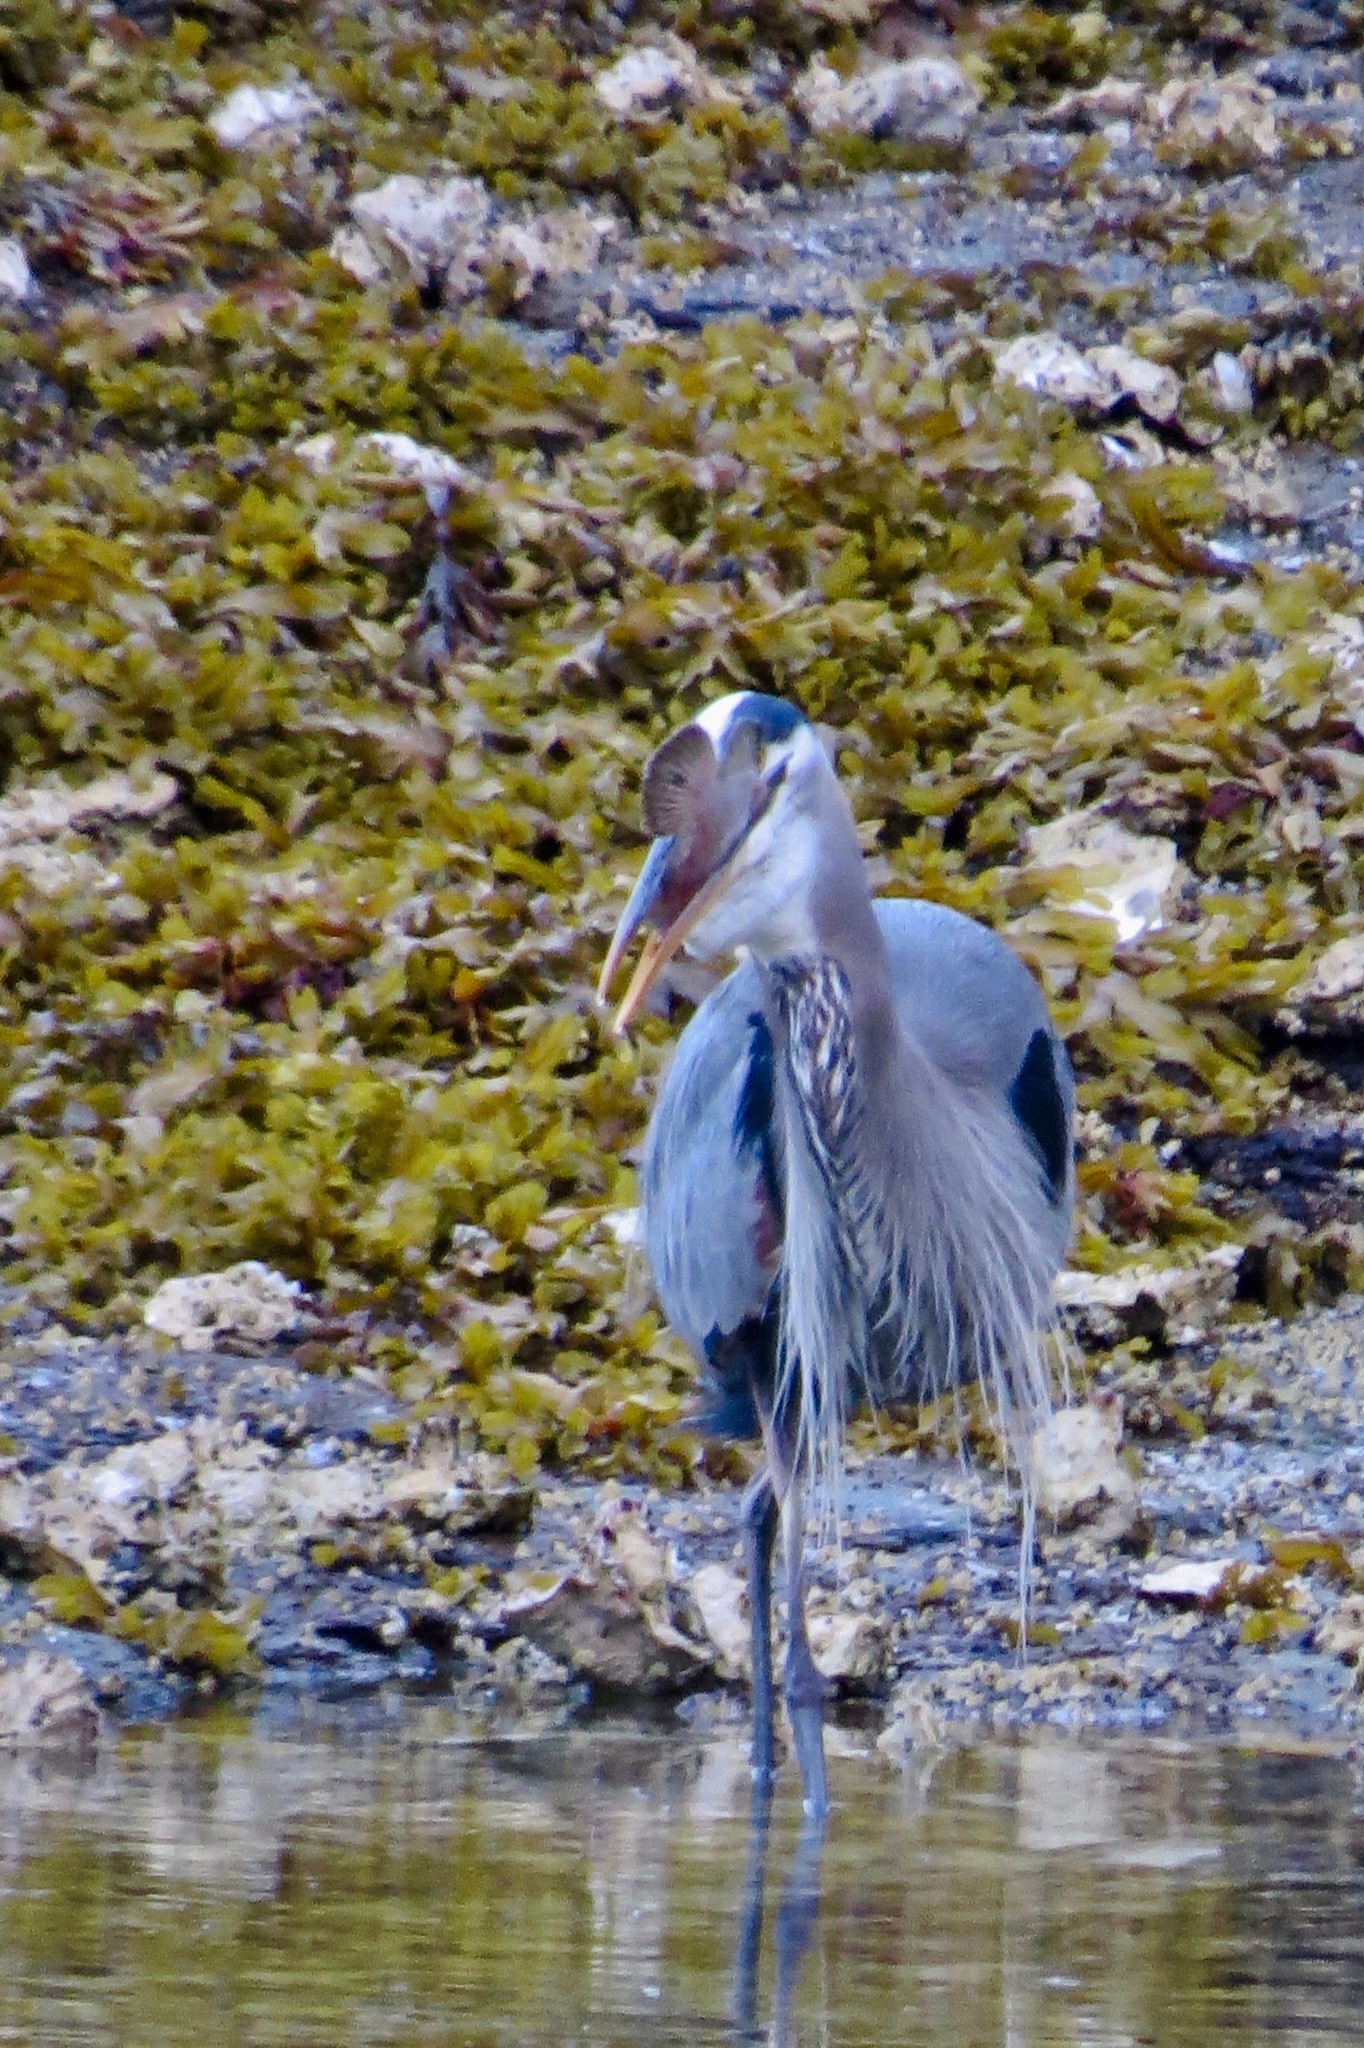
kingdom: Animalia
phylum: Chordata
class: Aves
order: Pelecaniformes
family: Ardeidae
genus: Ardea
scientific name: Ardea herodias
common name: Great blue heron
